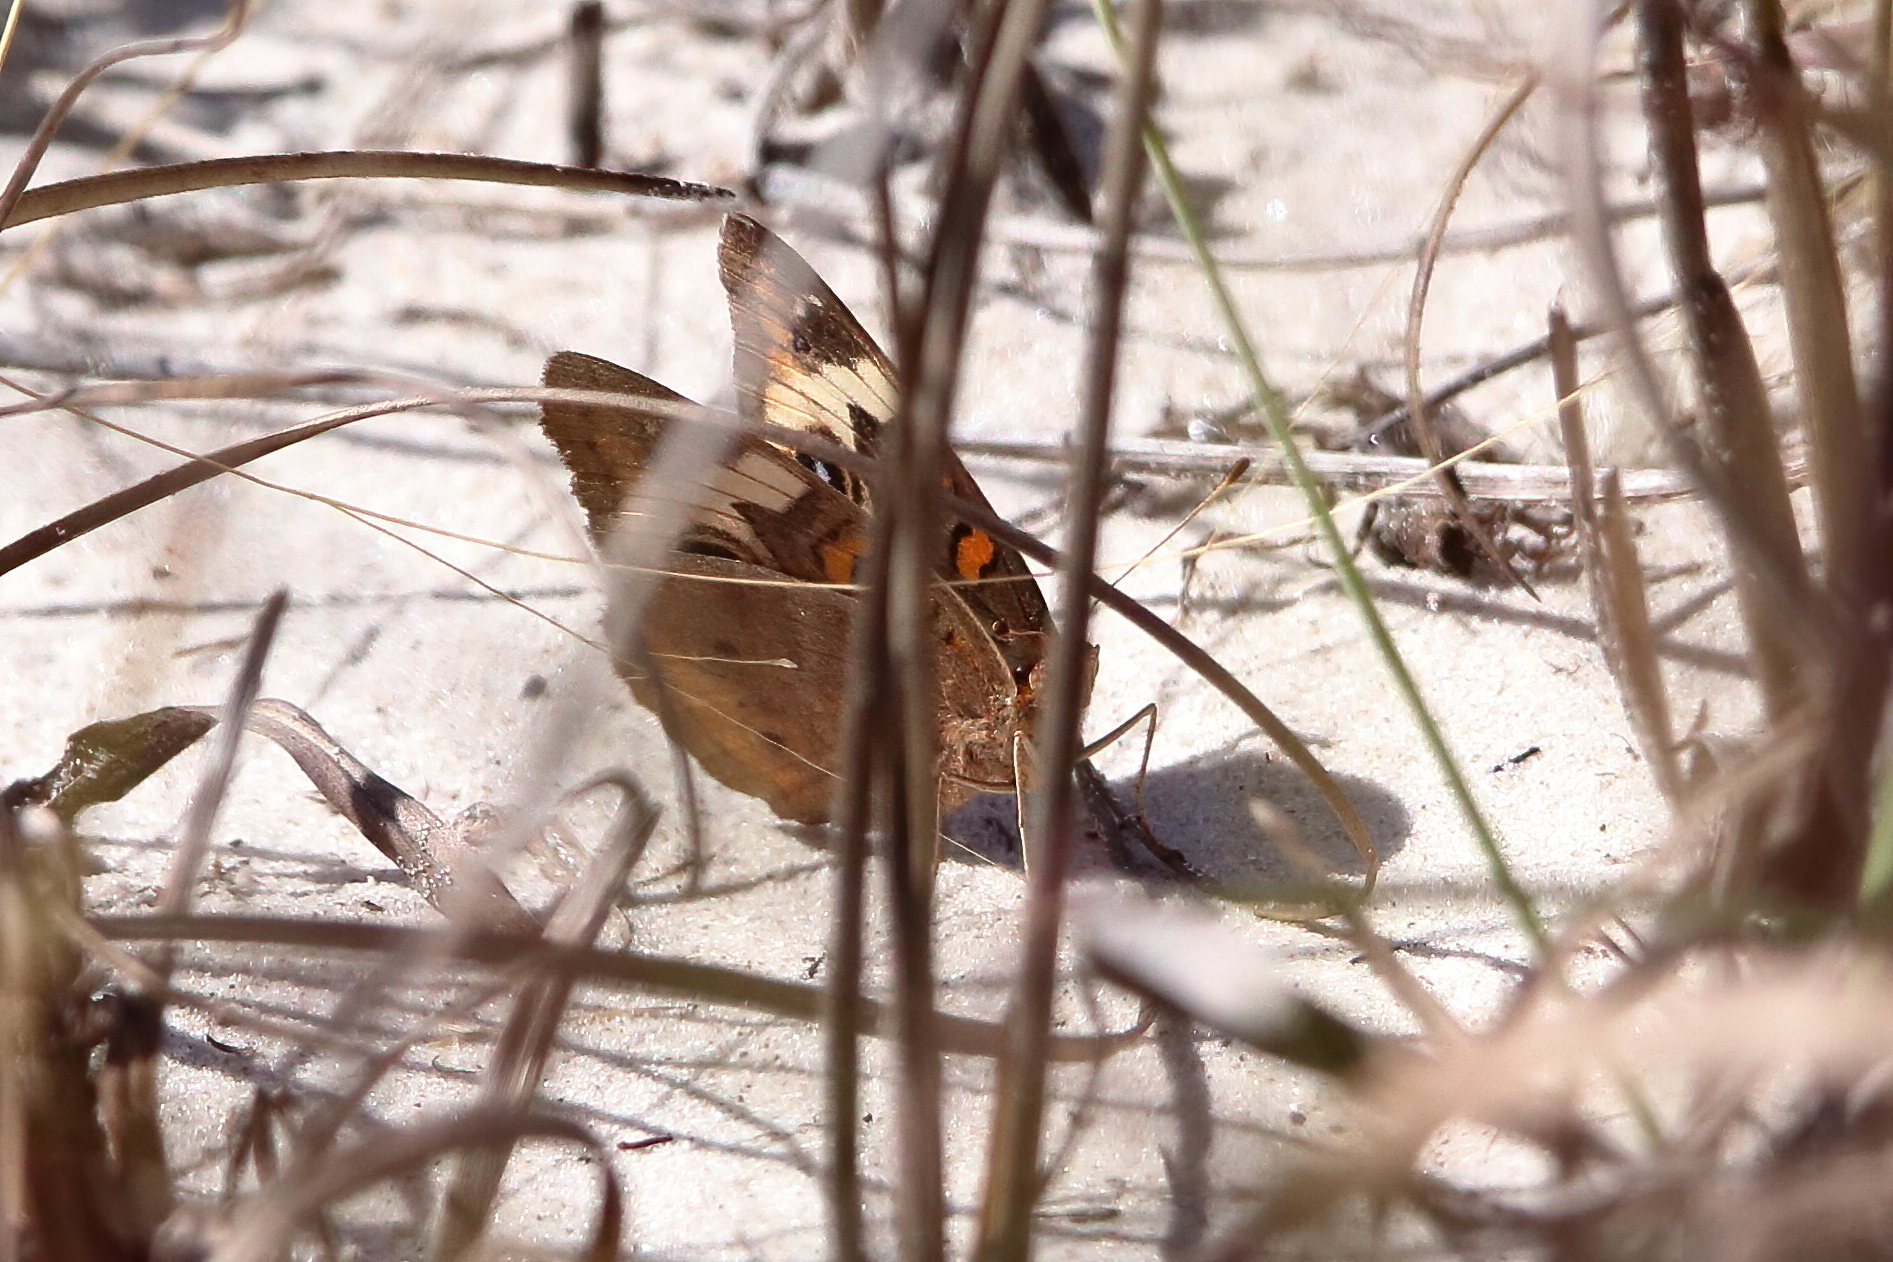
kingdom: Animalia
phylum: Arthropoda
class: Insecta
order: Lepidoptera
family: Nymphalidae
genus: Junonia
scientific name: Junonia coenia
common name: Common buckeye
